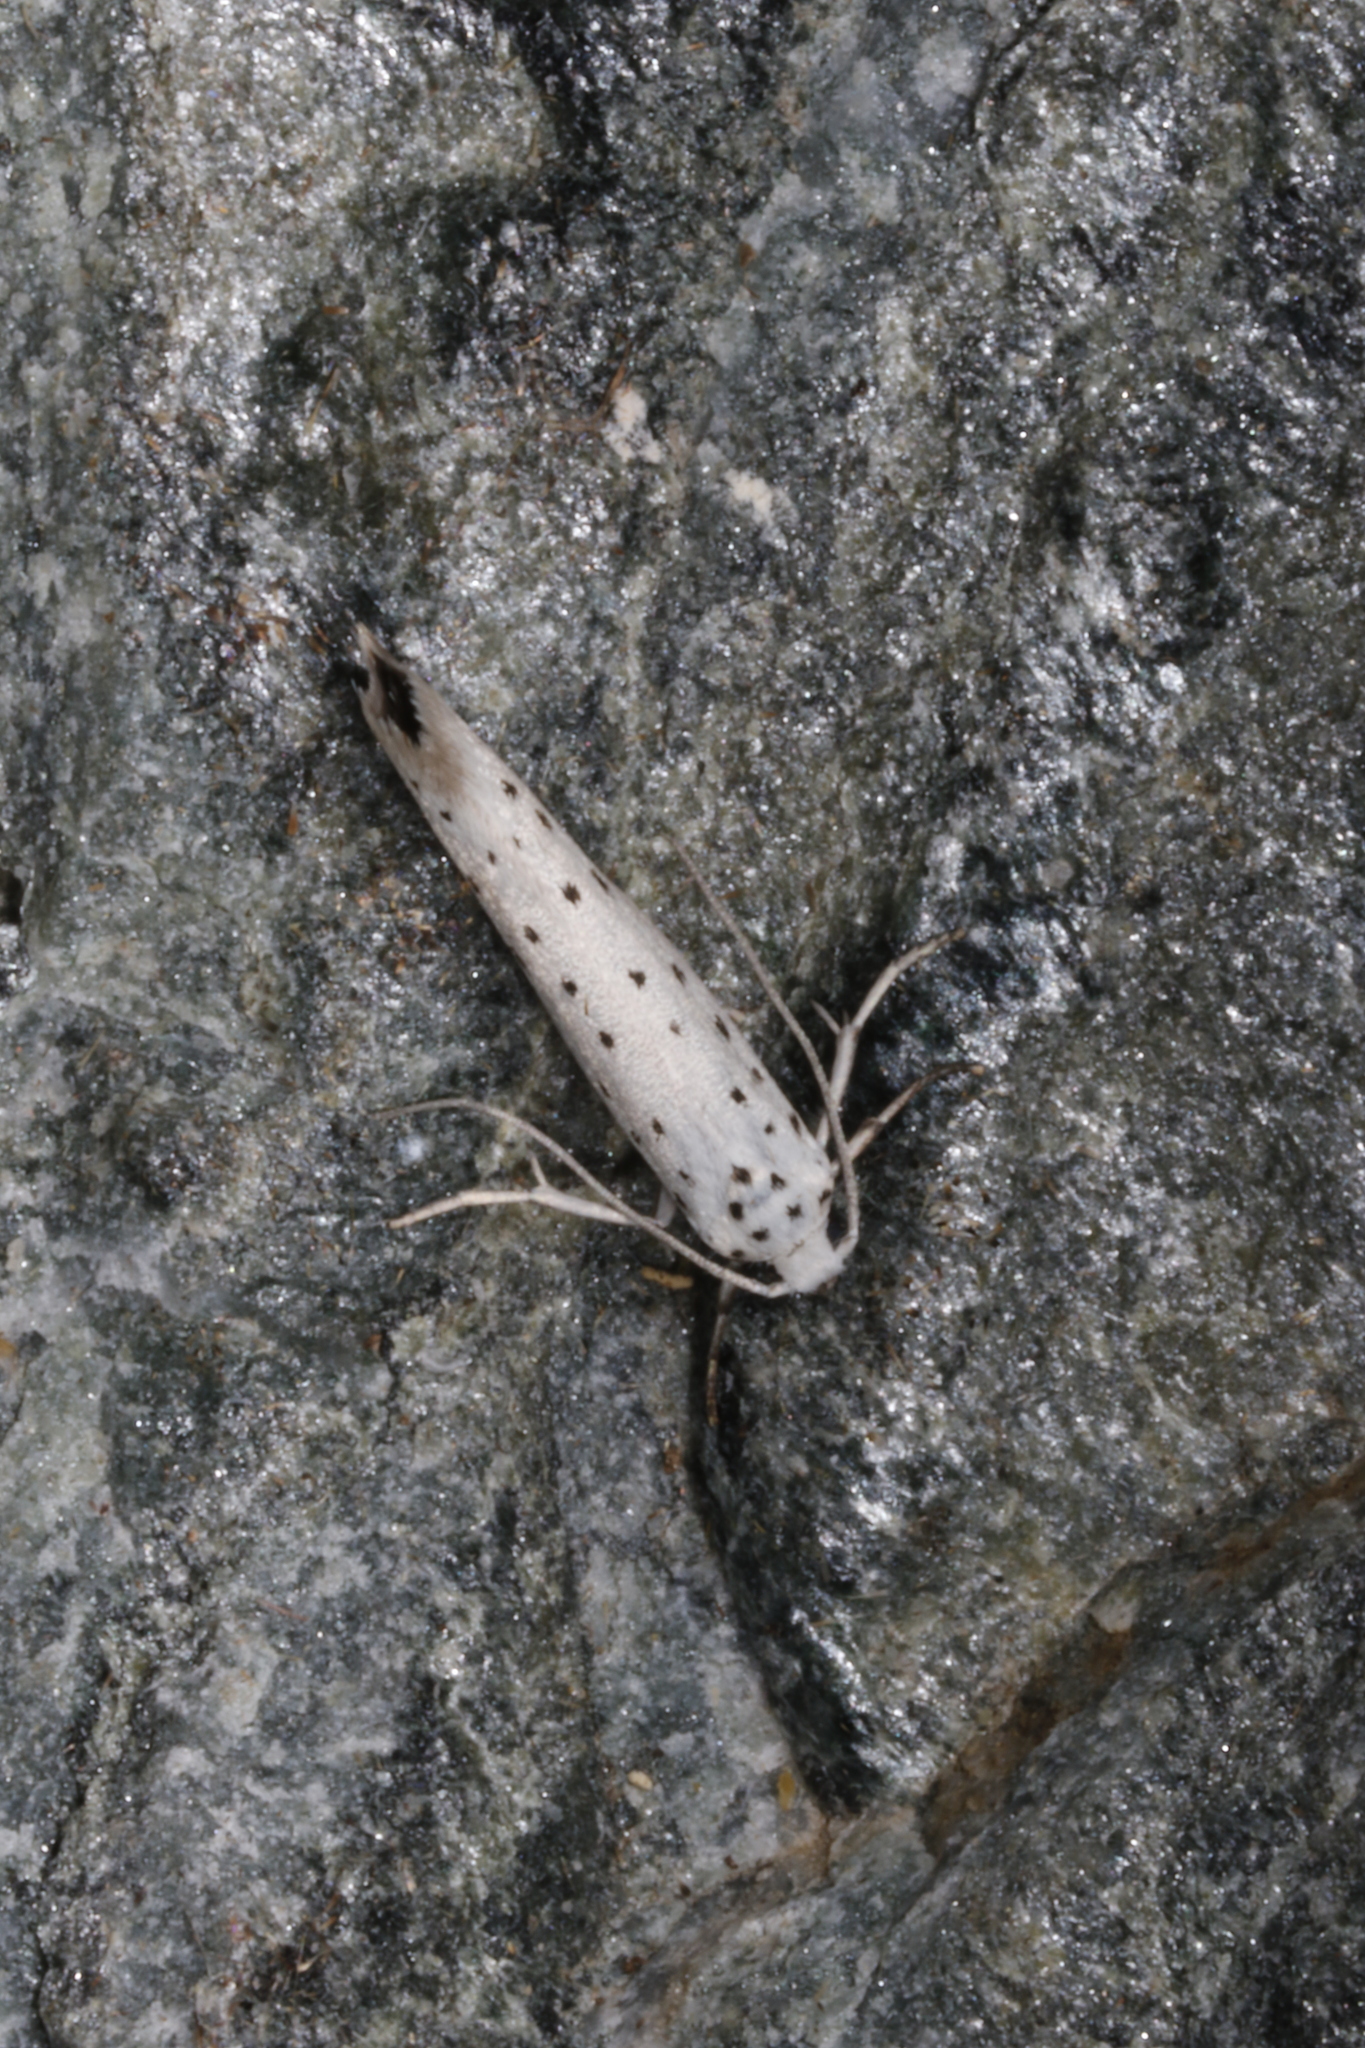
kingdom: Animalia
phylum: Arthropoda
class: Insecta
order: Lepidoptera
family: Yponomeutidae
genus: Yponomeuta
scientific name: Yponomeuta
